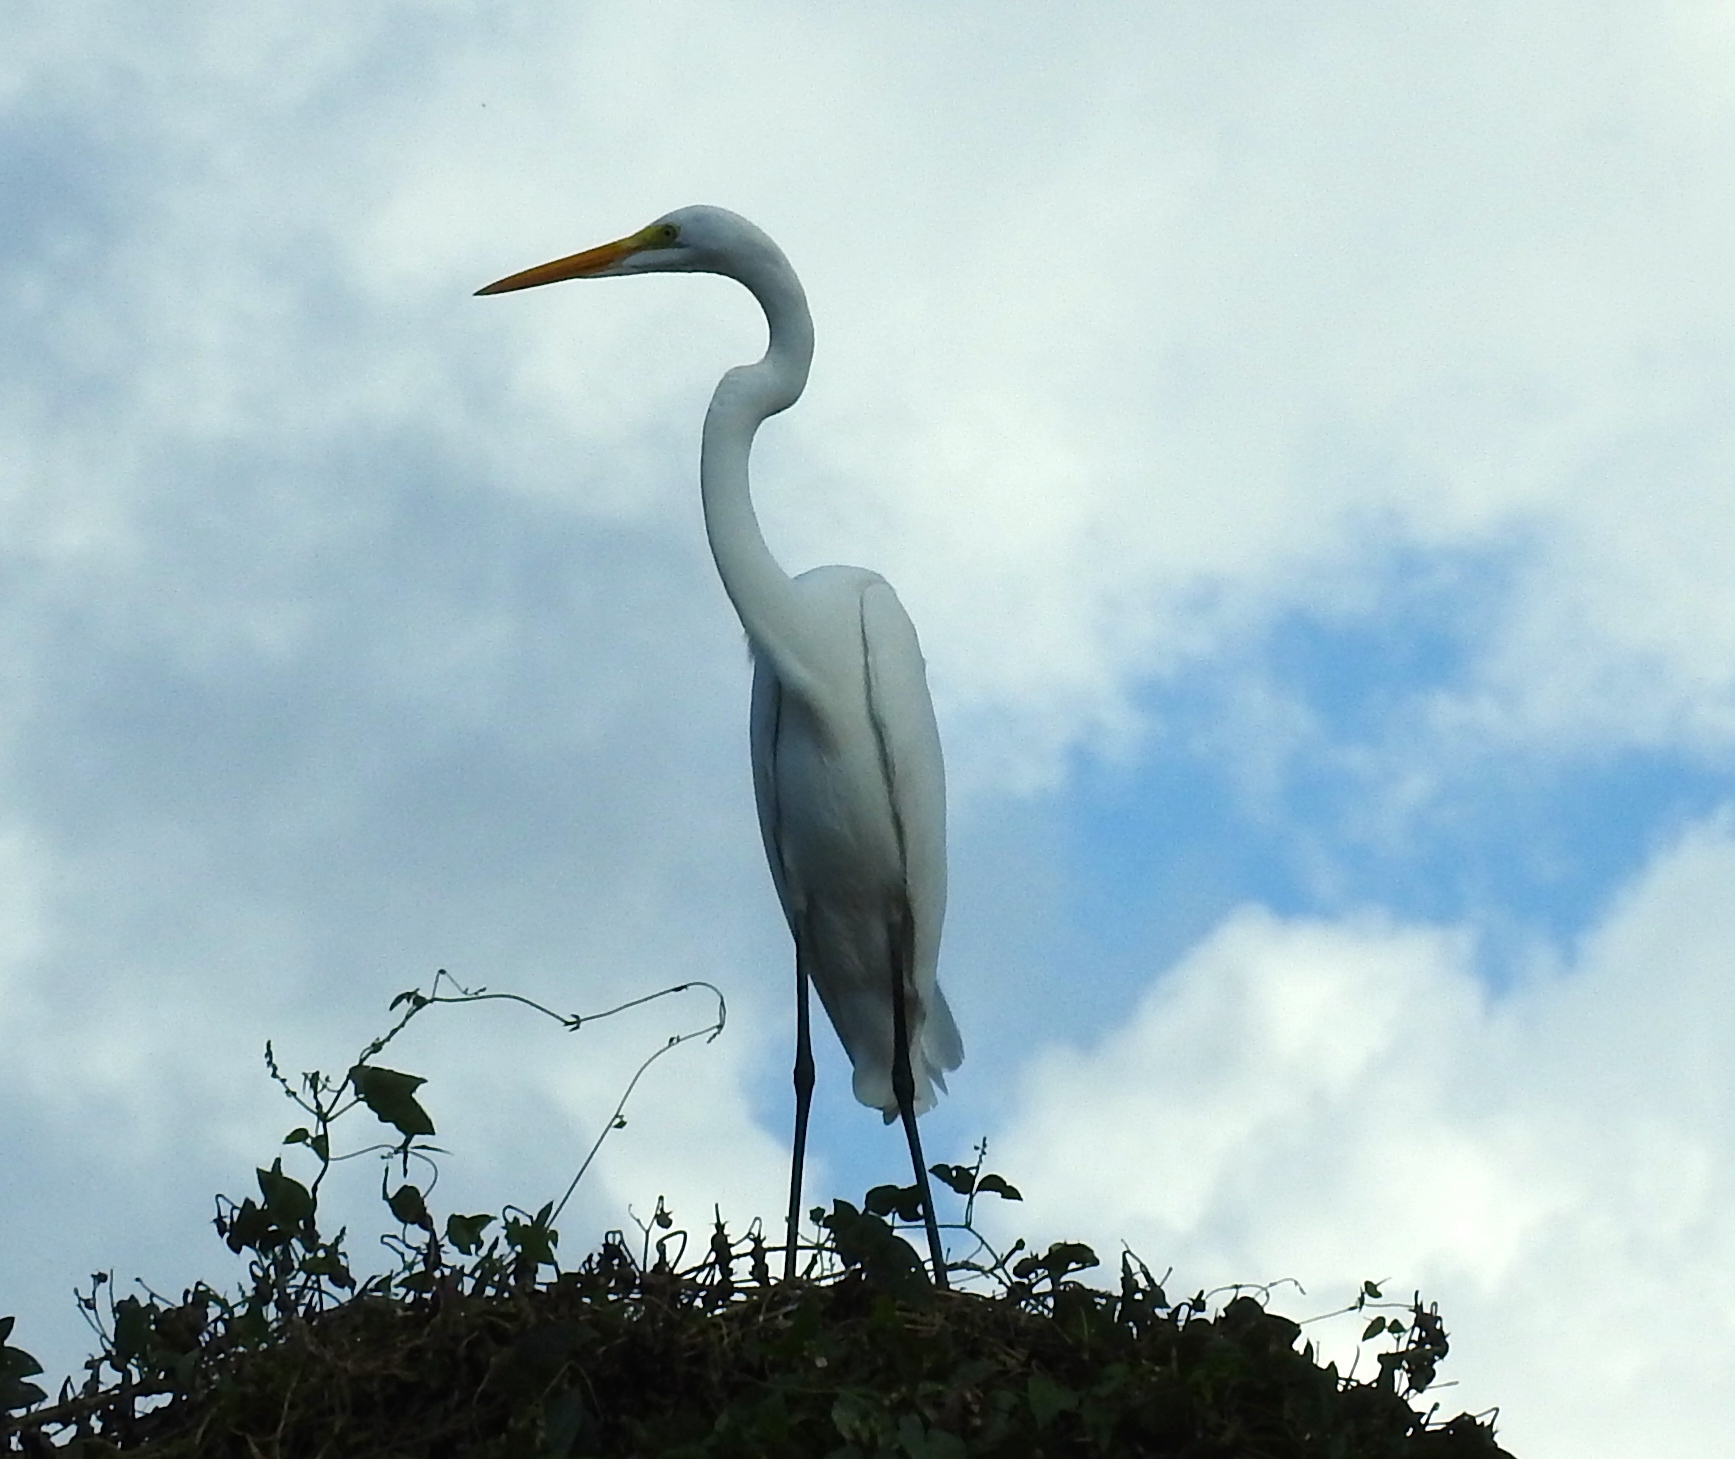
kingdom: Animalia
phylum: Chordata
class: Aves
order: Pelecaniformes
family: Ardeidae
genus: Ardea
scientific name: Ardea alba
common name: Great egret
